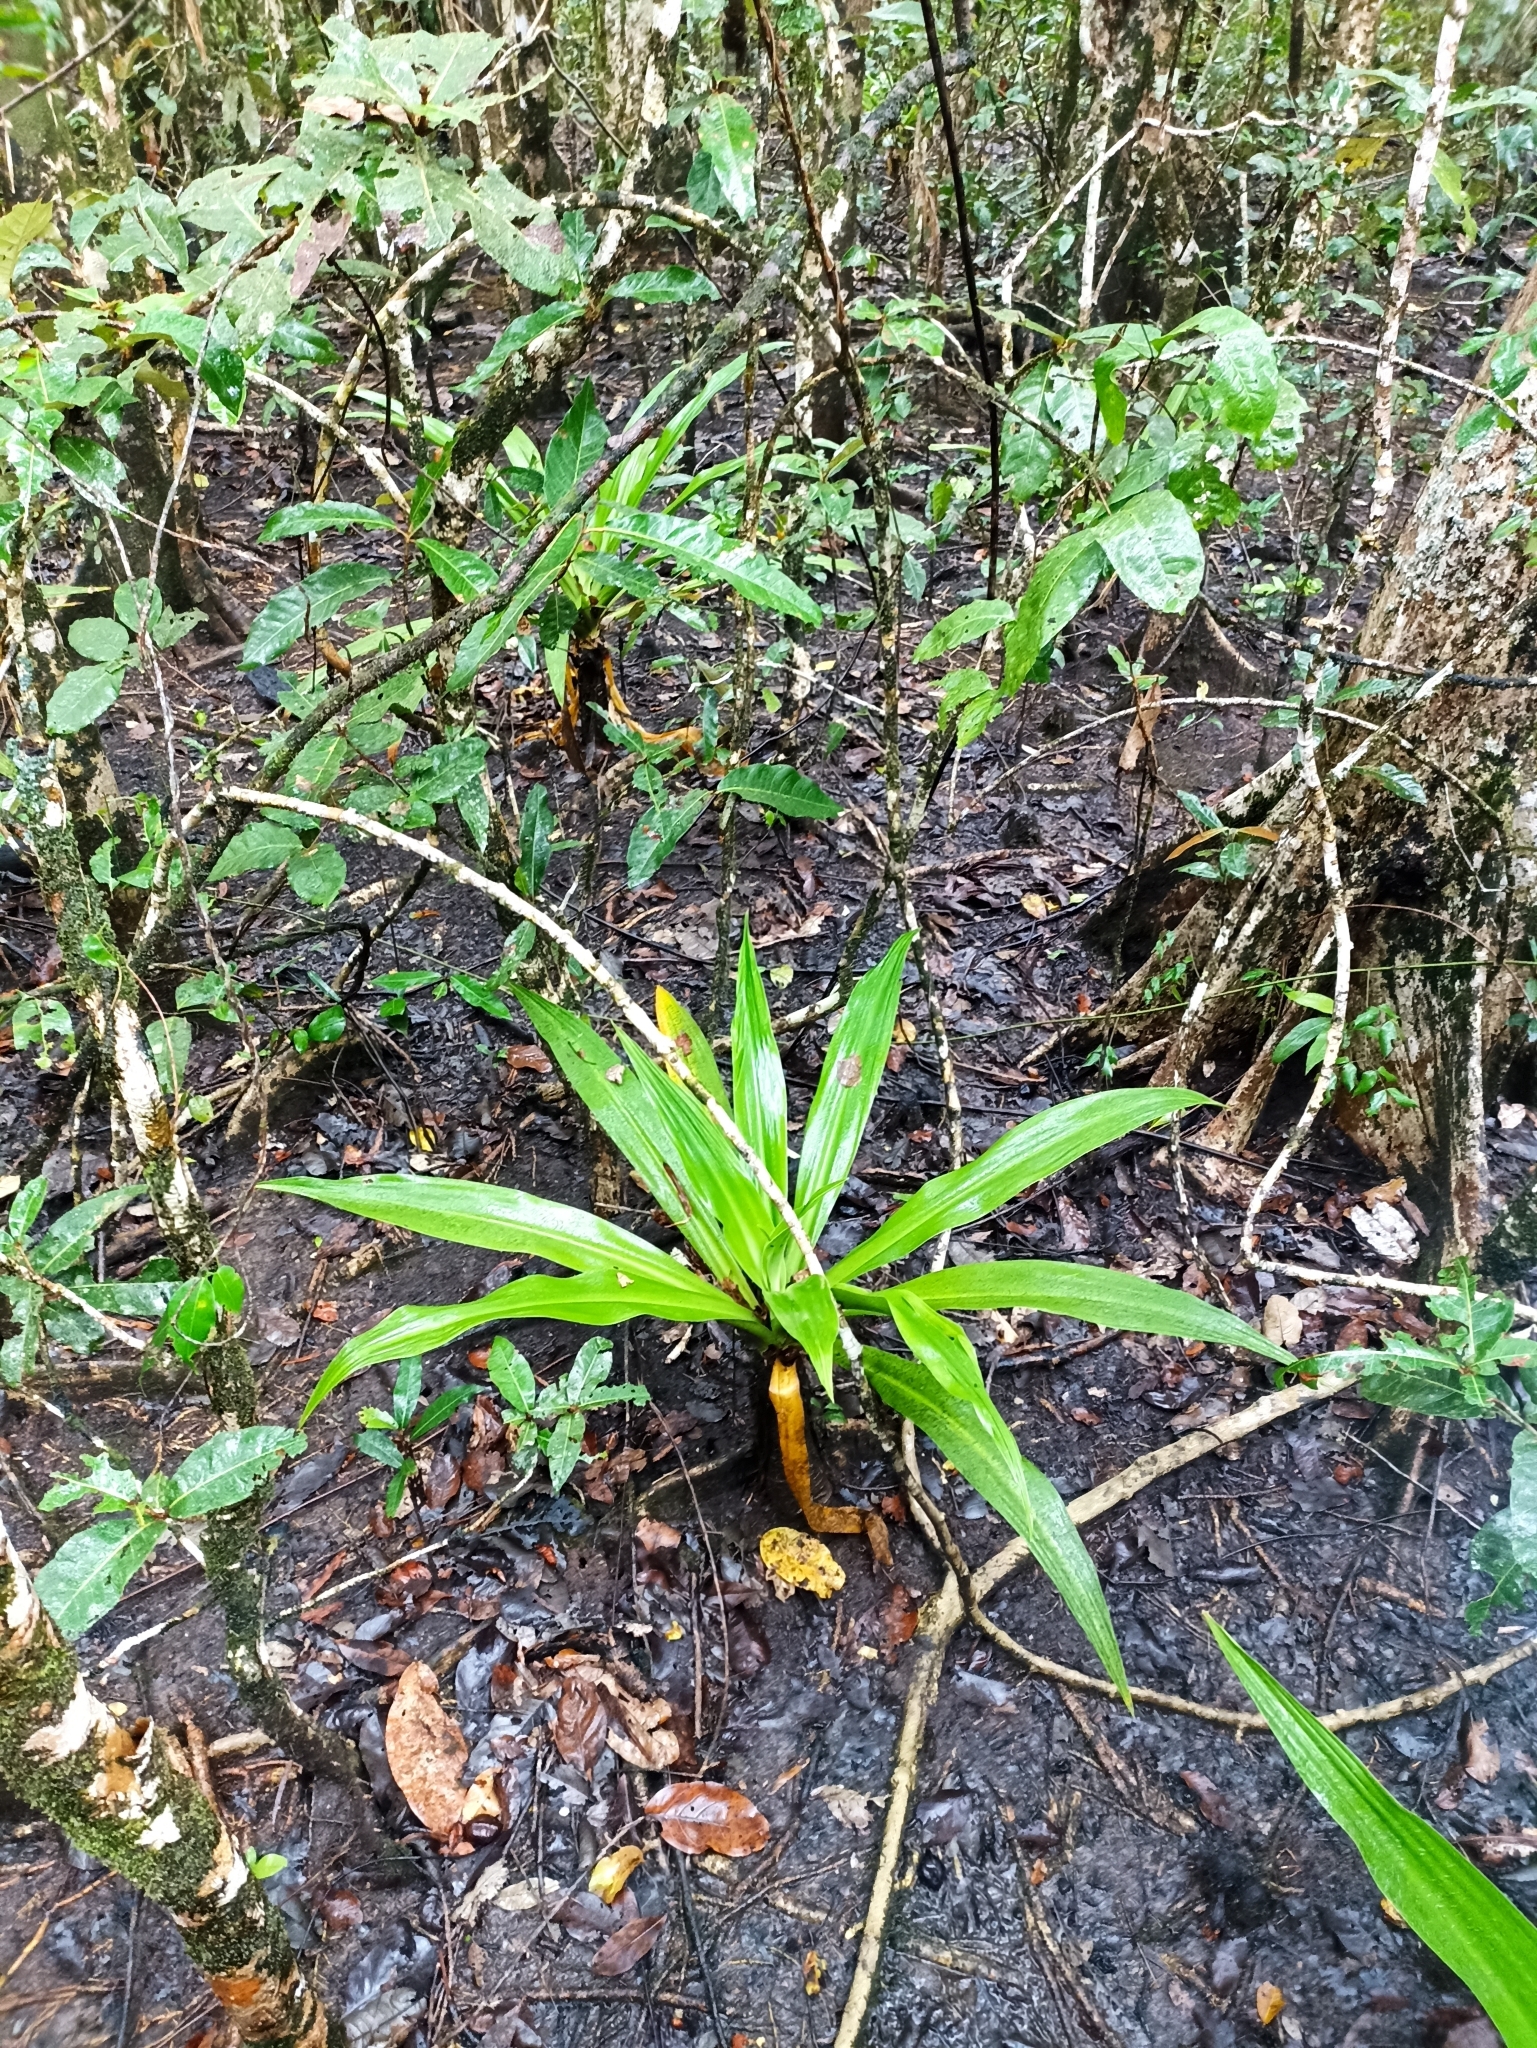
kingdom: Plantae
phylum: Tracheophyta
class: Liliopsida
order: Asparagales
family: Amaryllidaceae
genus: Crinum
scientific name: Crinum pedunculatum
